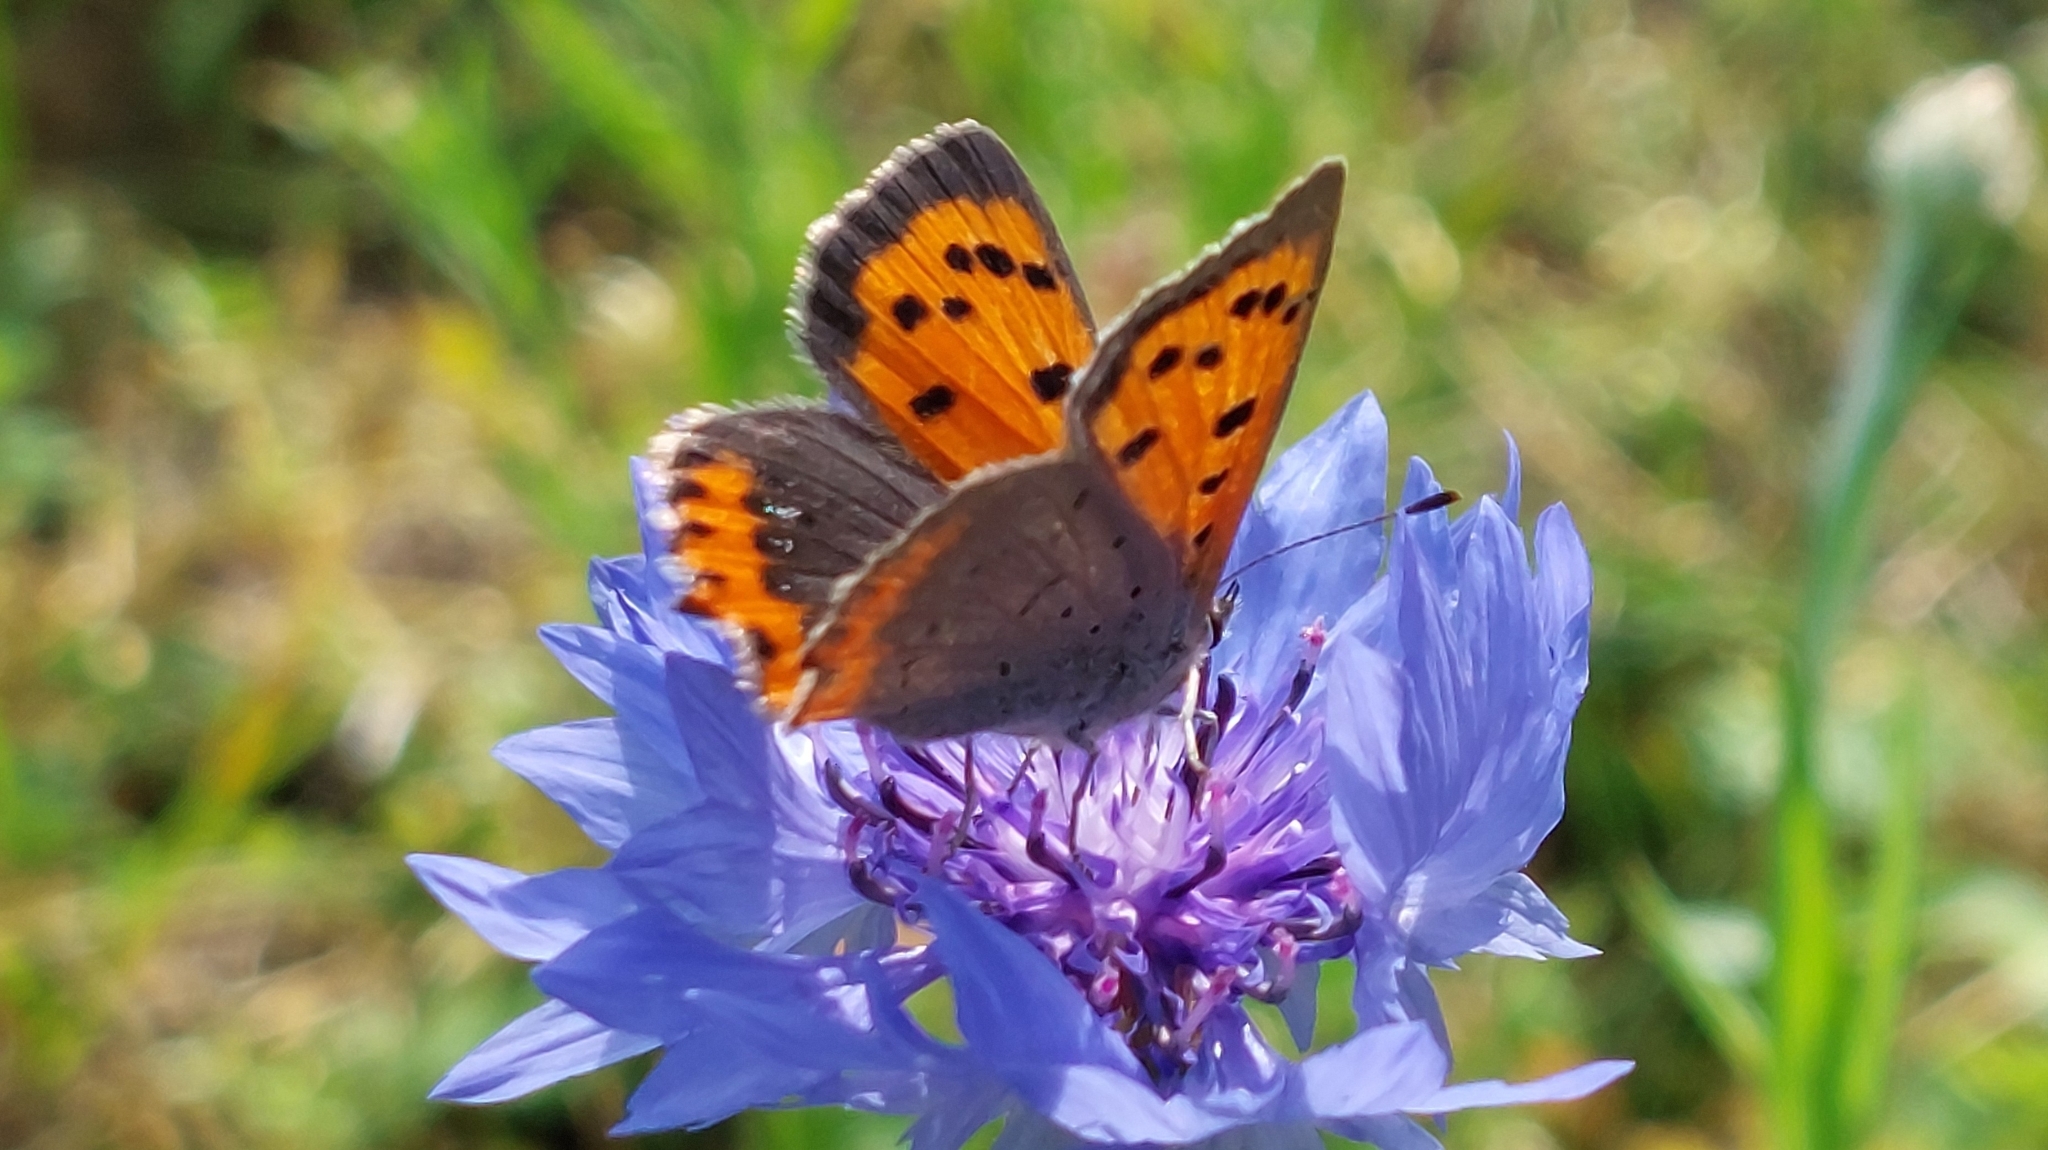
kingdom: Animalia
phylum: Arthropoda
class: Insecta
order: Lepidoptera
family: Lycaenidae
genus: Lycaena
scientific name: Lycaena phlaeas
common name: Small copper
